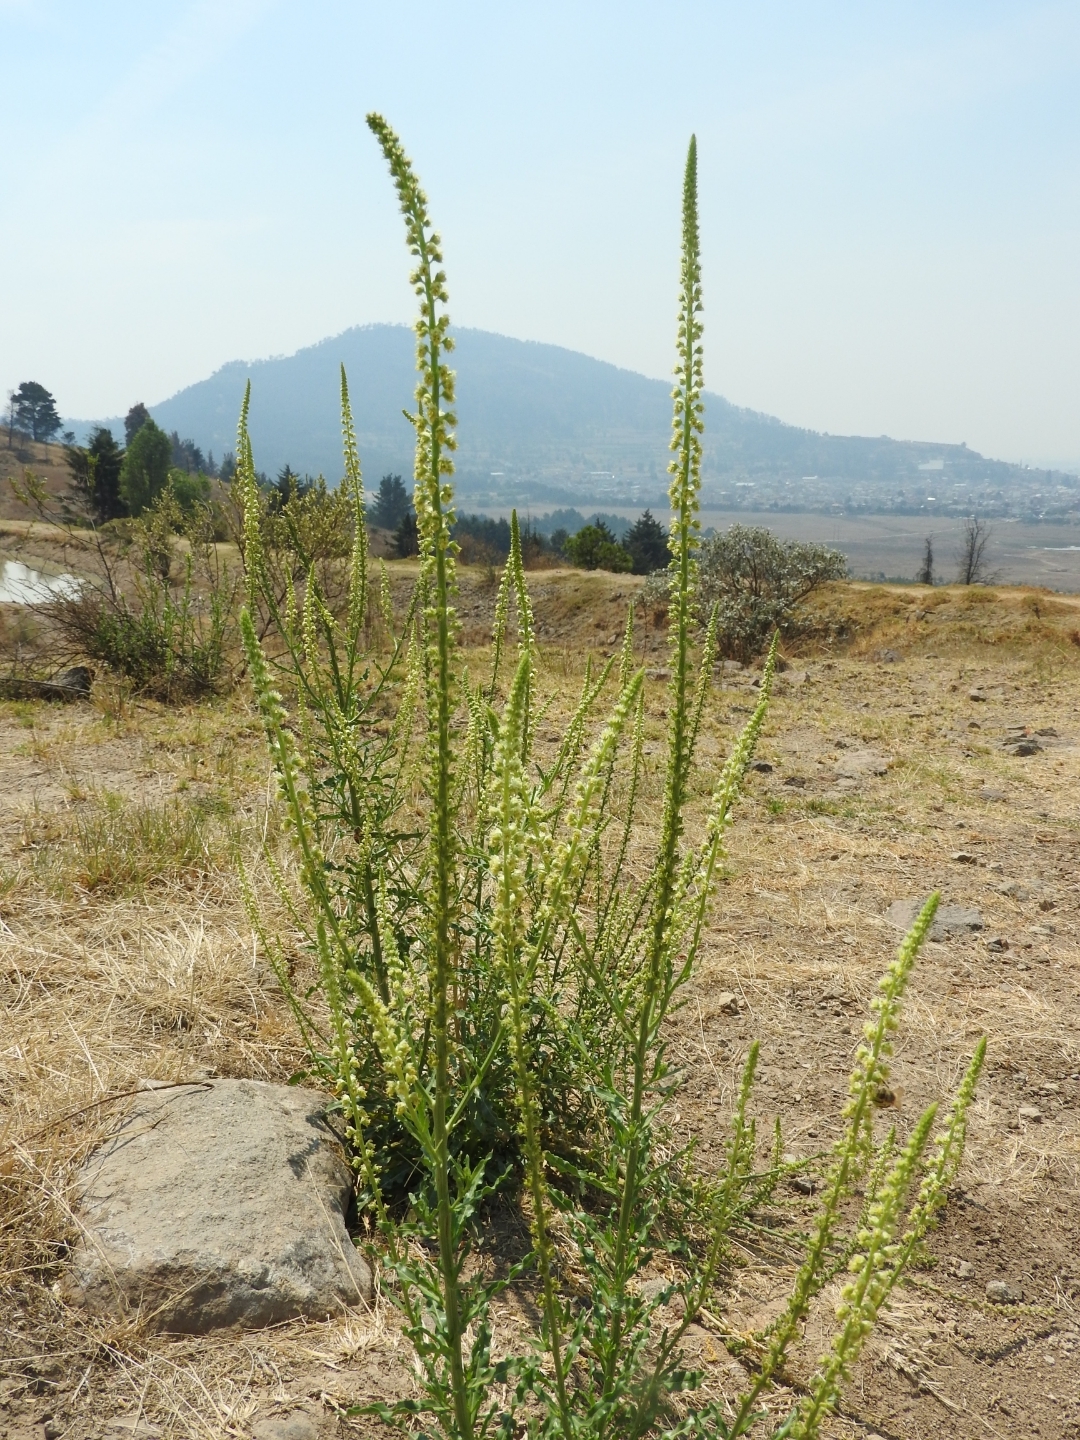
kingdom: Plantae
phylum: Tracheophyta
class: Magnoliopsida
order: Brassicales
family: Resedaceae
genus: Reseda
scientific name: Reseda luteola
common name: Weld
